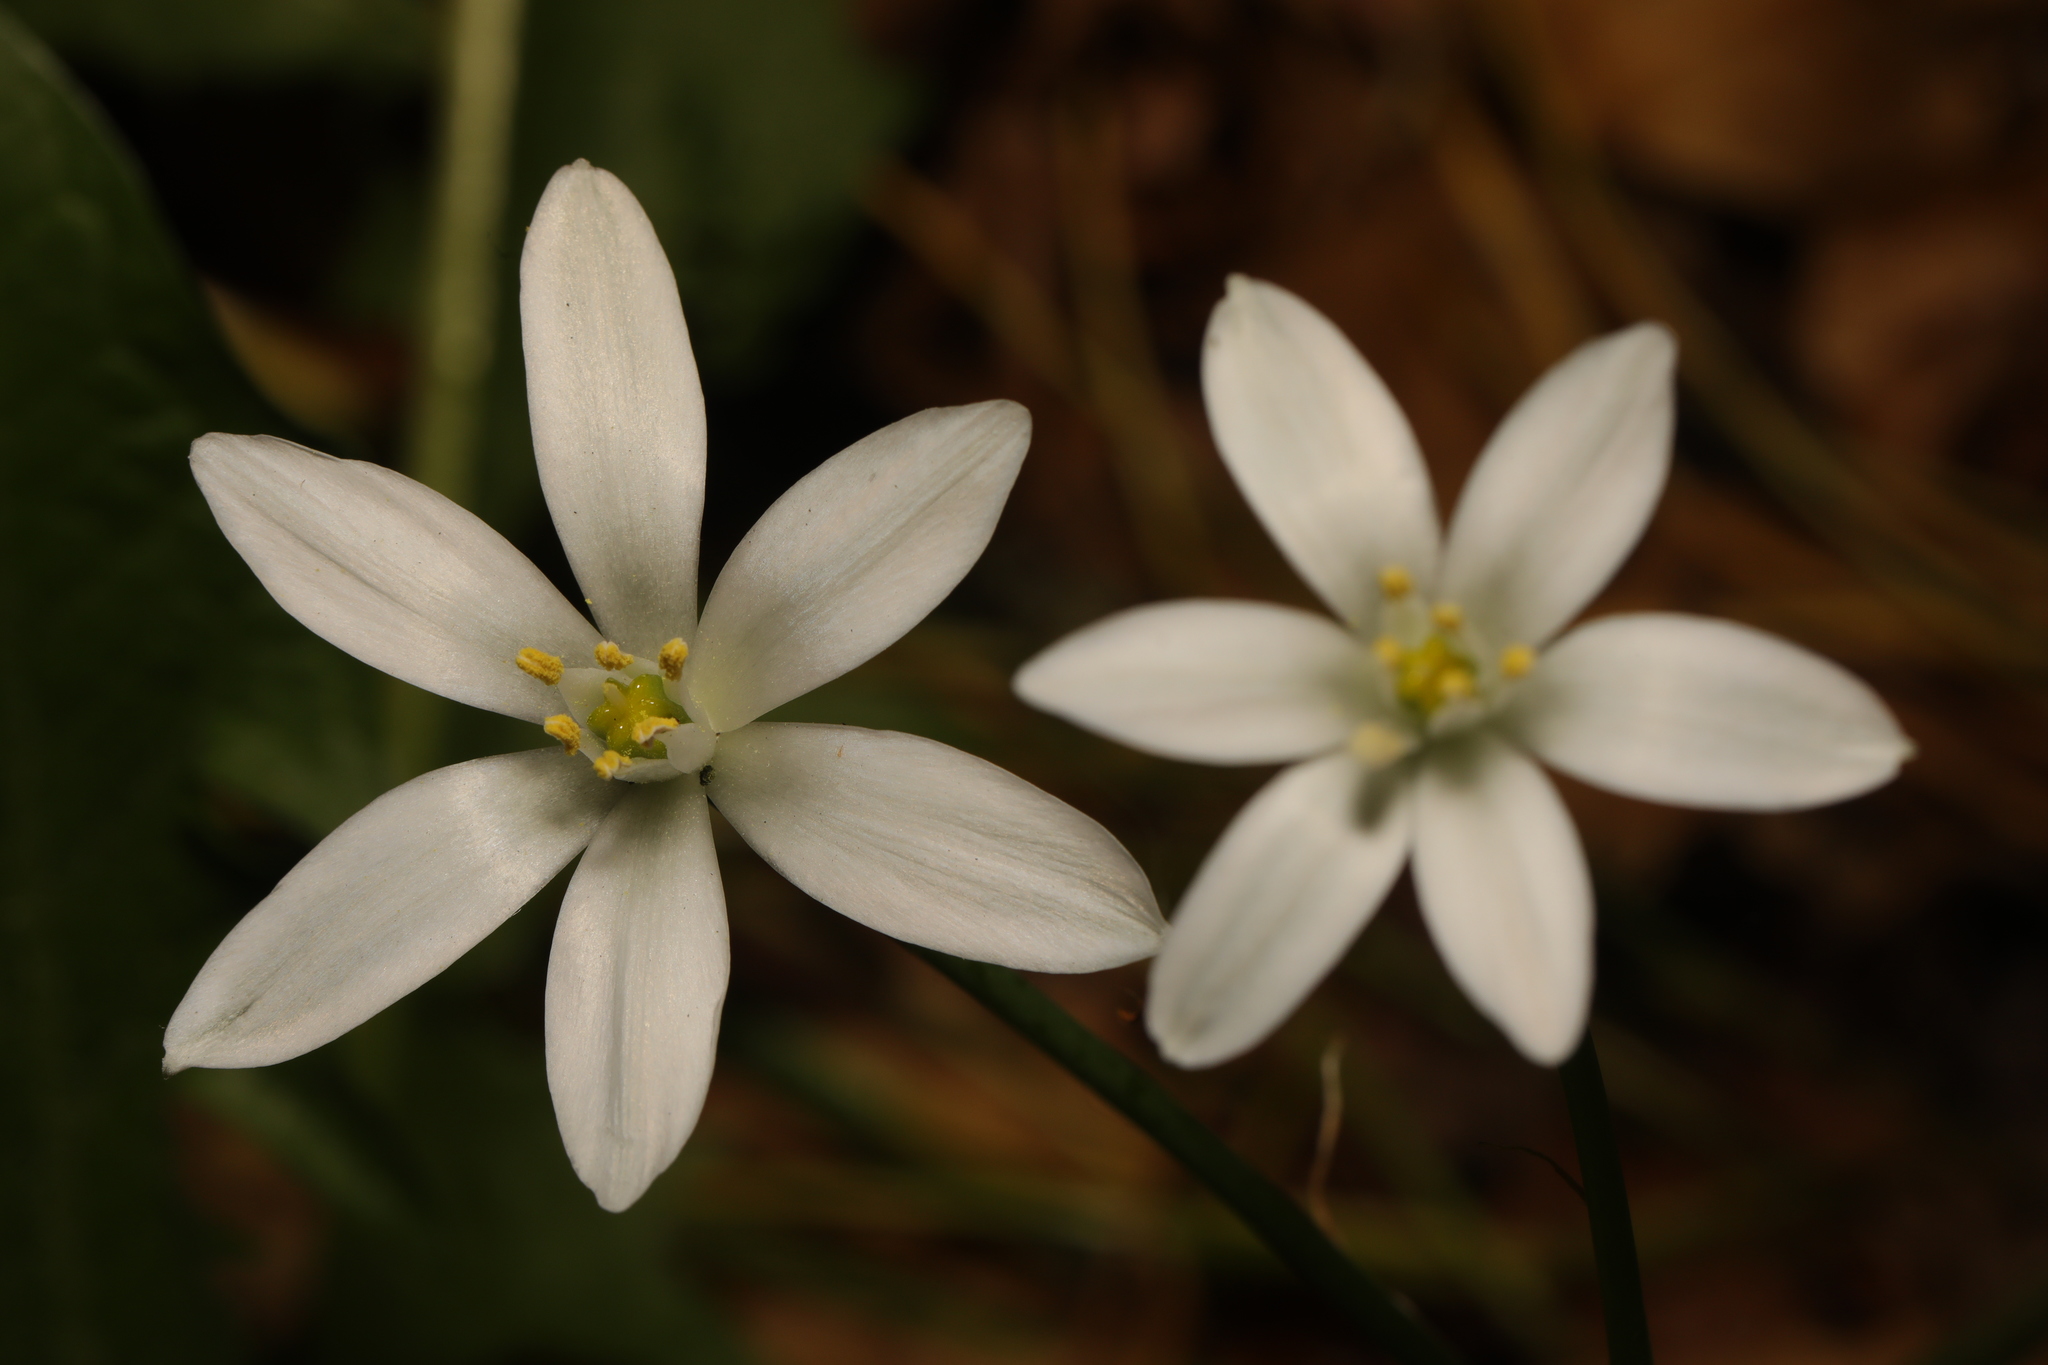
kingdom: Plantae
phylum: Tracheophyta
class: Liliopsida
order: Asparagales
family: Asparagaceae
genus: Ornithogalum
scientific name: Ornithogalum umbellatum
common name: Garden star-of-bethlehem
